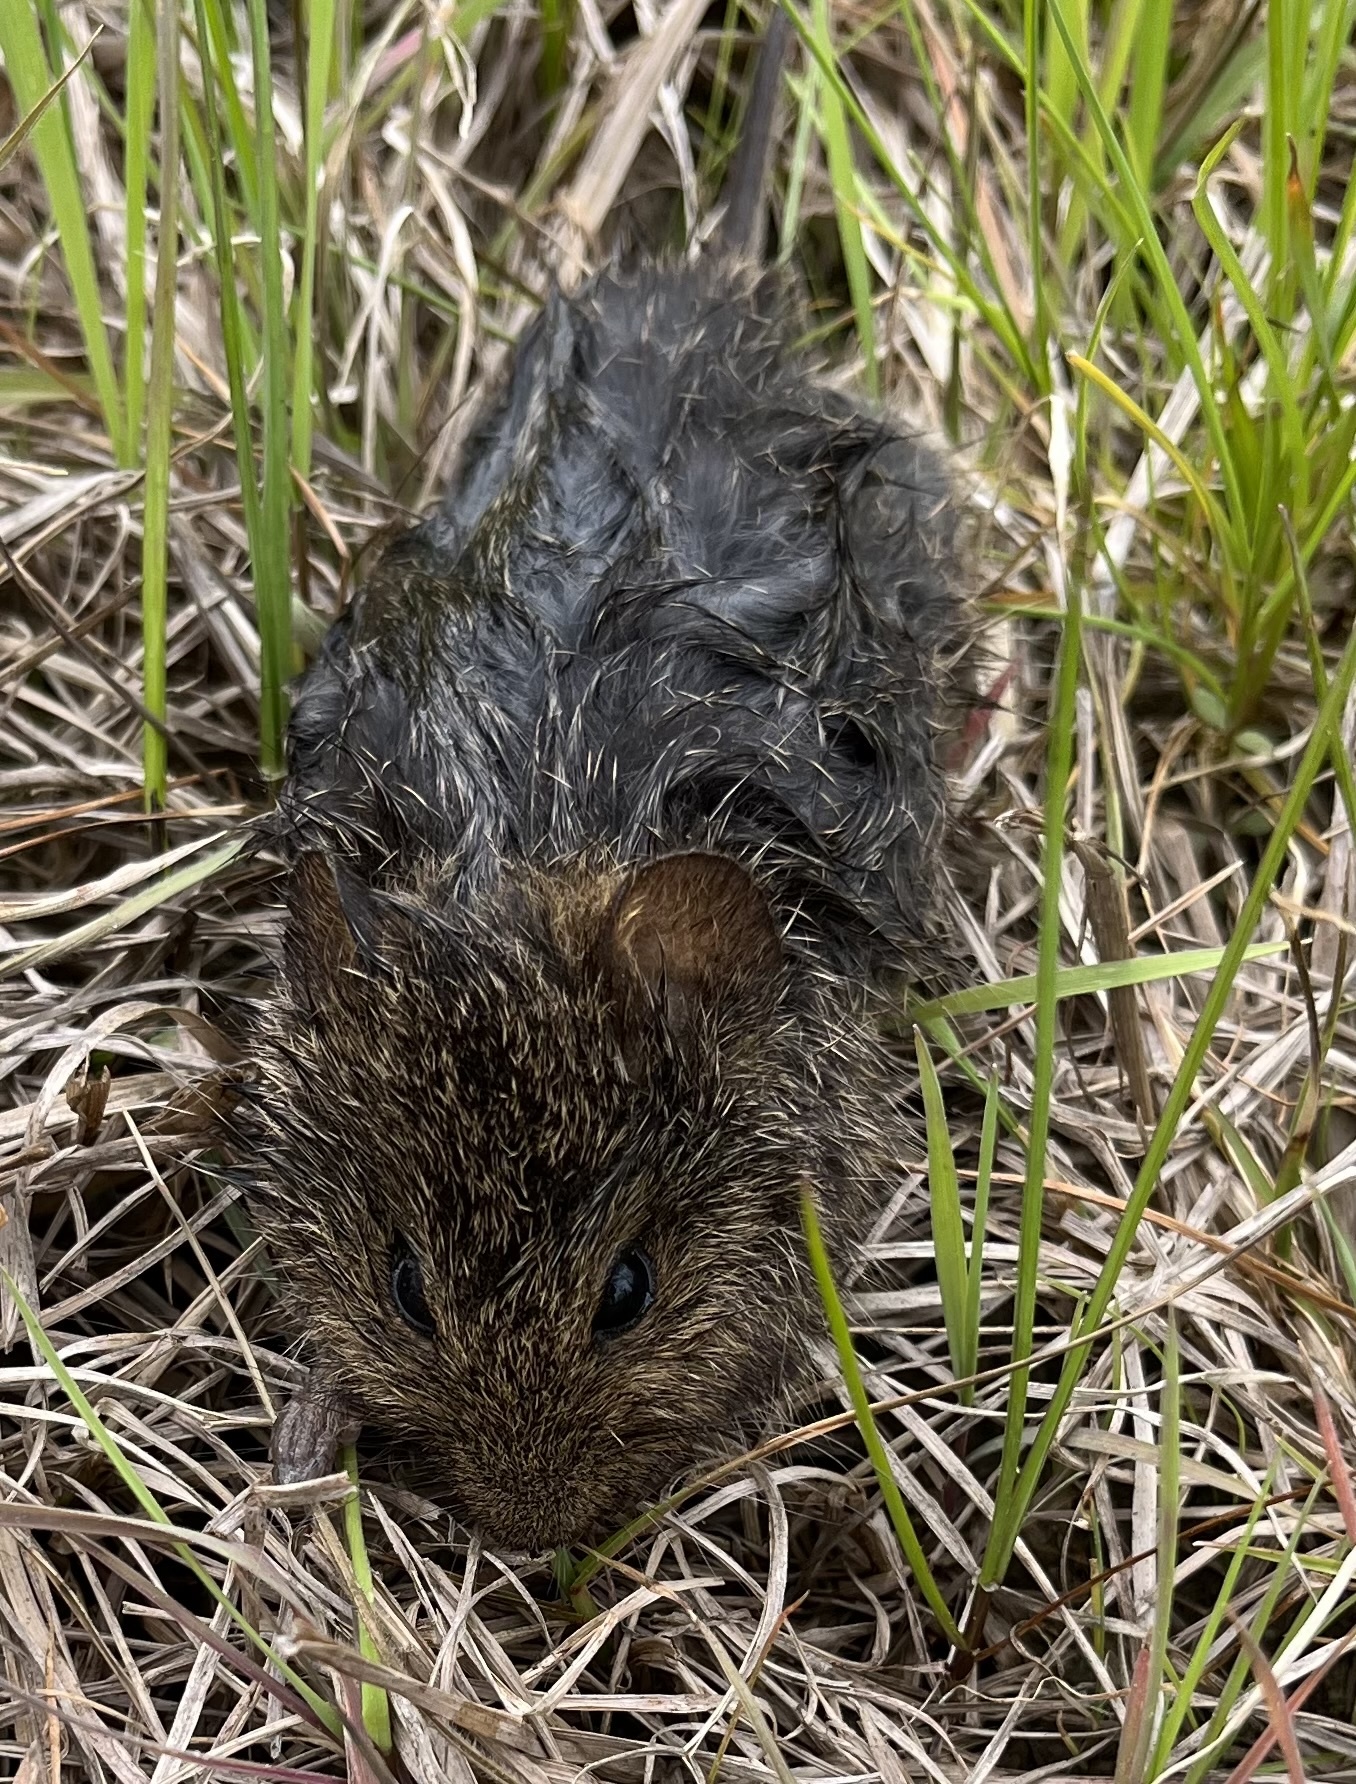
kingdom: Animalia
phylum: Chordata
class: Mammalia
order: Rodentia
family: Cricetidae
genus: Sigmodon
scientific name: Sigmodon hispidus
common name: Hispid cotton rat
